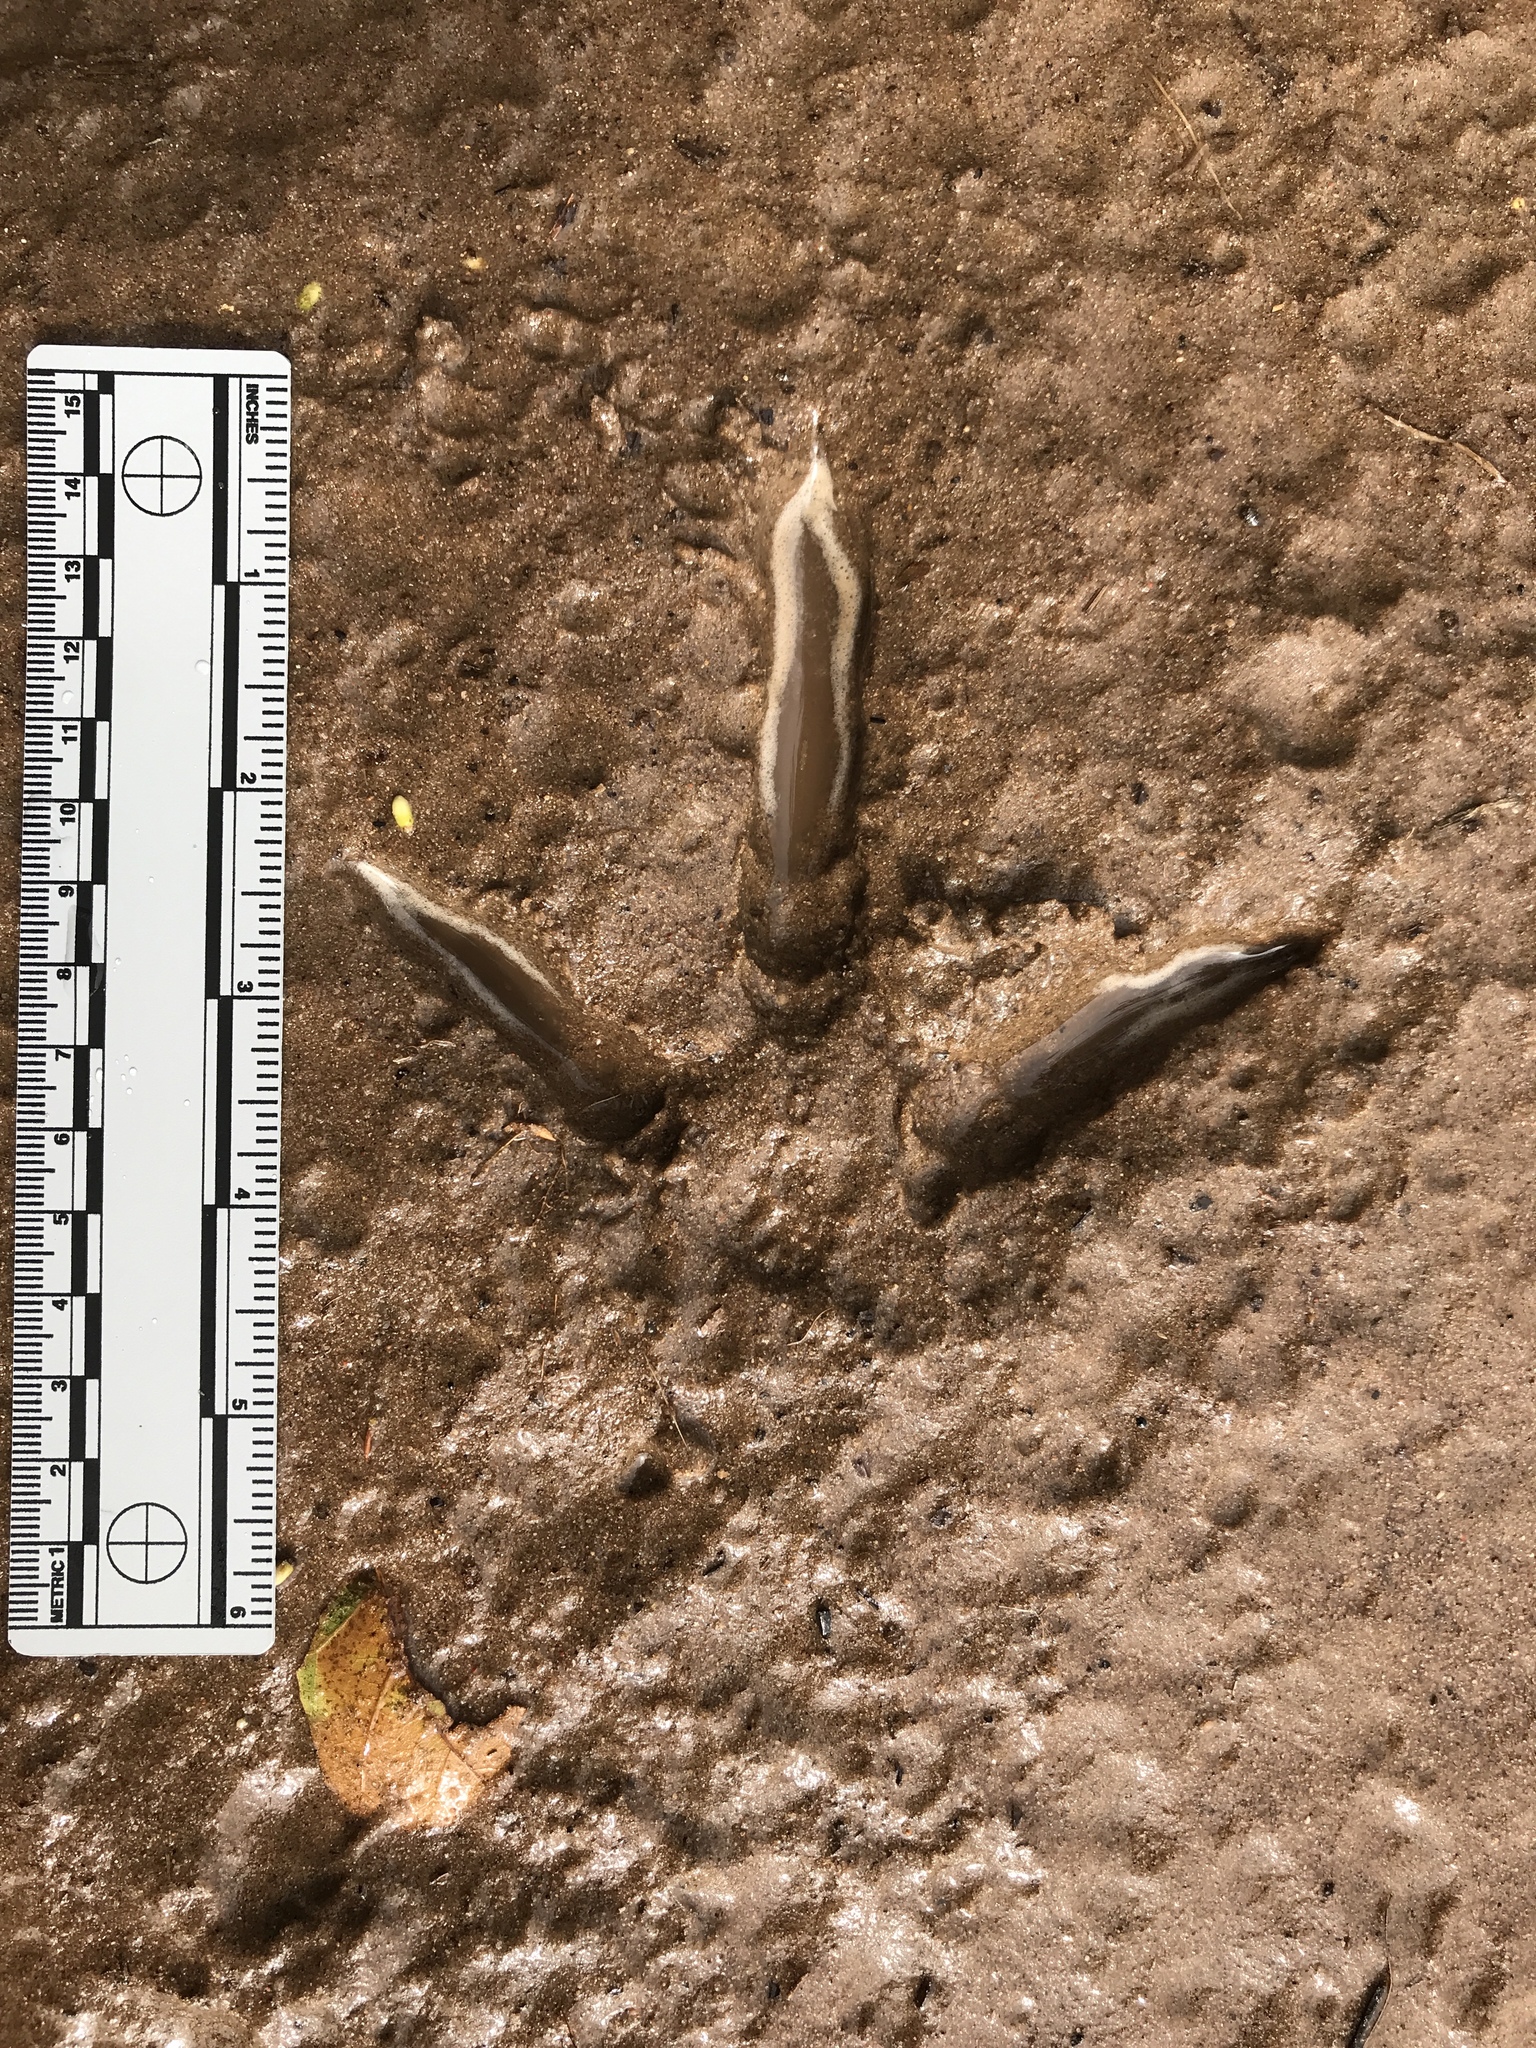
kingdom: Animalia
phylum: Chordata
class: Aves
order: Galliformes
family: Phasianidae
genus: Meleagris
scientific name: Meleagris gallopavo
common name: Wild turkey
